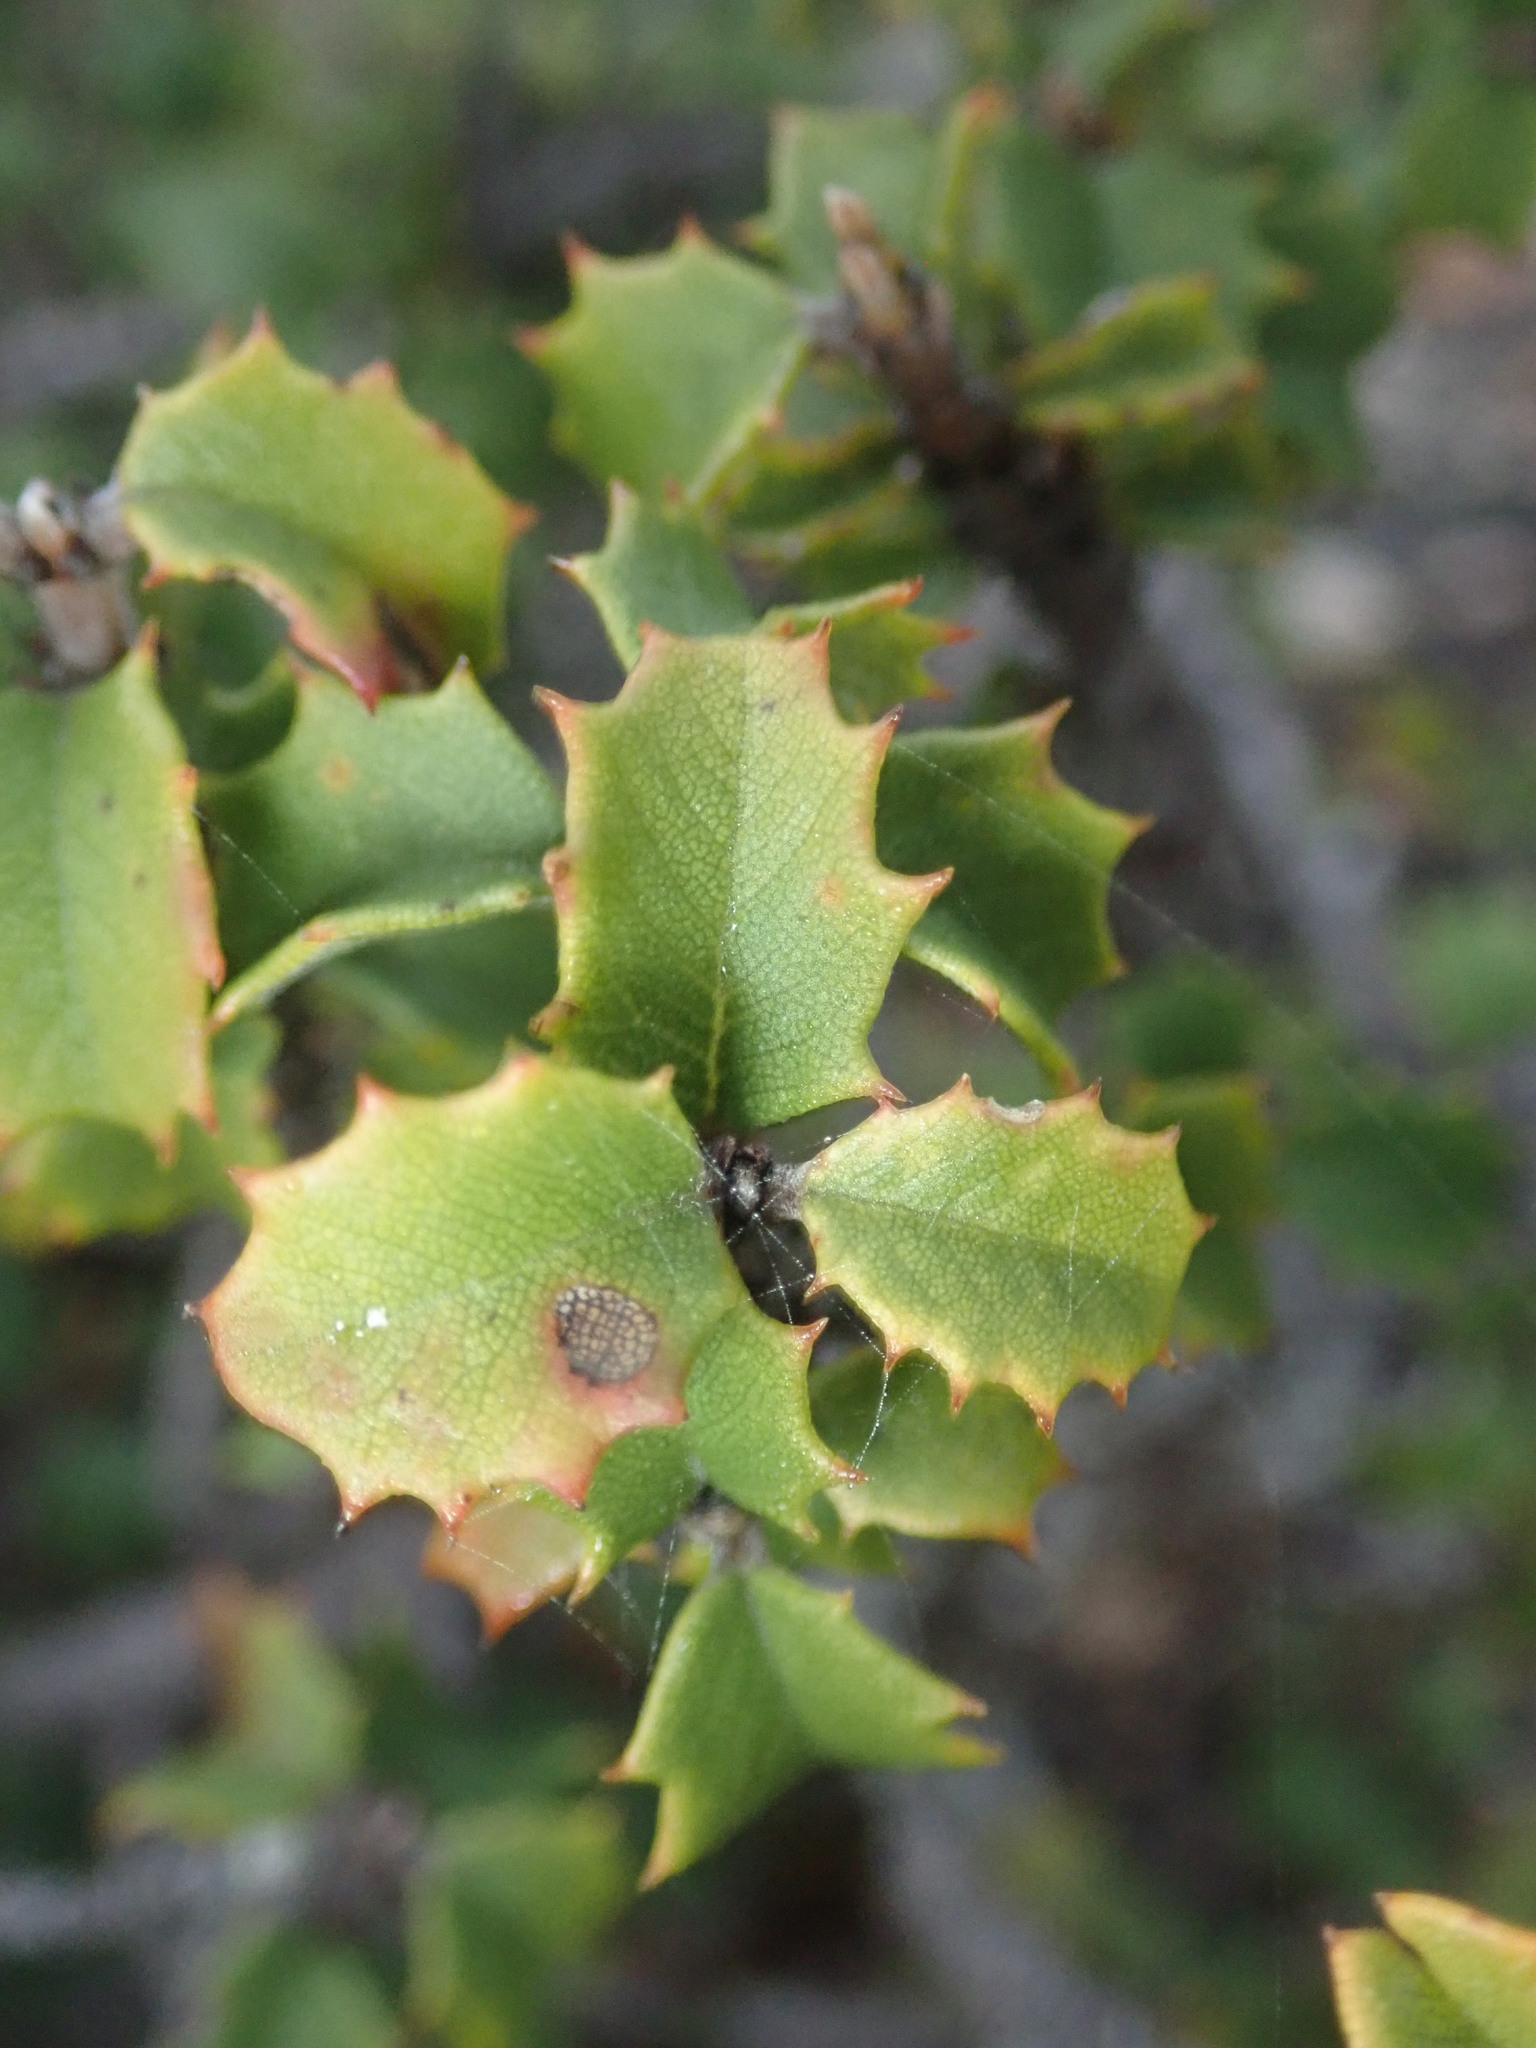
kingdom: Plantae
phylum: Tracheophyta
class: Magnoliopsida
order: Rosales
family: Rhamnaceae
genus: Ceanothus
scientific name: Ceanothus jepsonii
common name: Muskbrush
